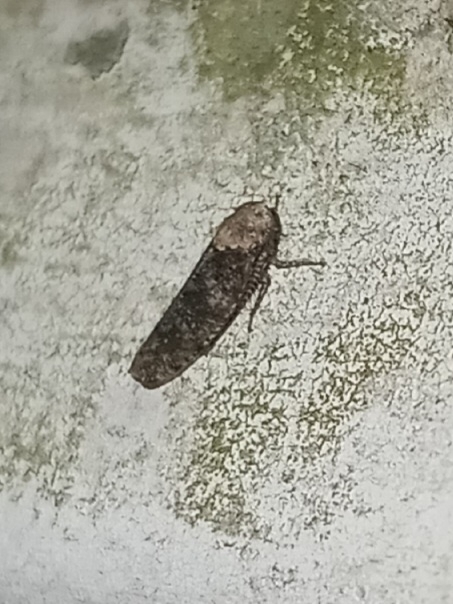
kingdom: Animalia
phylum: Arthropoda
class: Insecta
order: Hemiptera
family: Cicadellidae
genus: Paraphlepsius
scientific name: Paraphlepsius collitus
